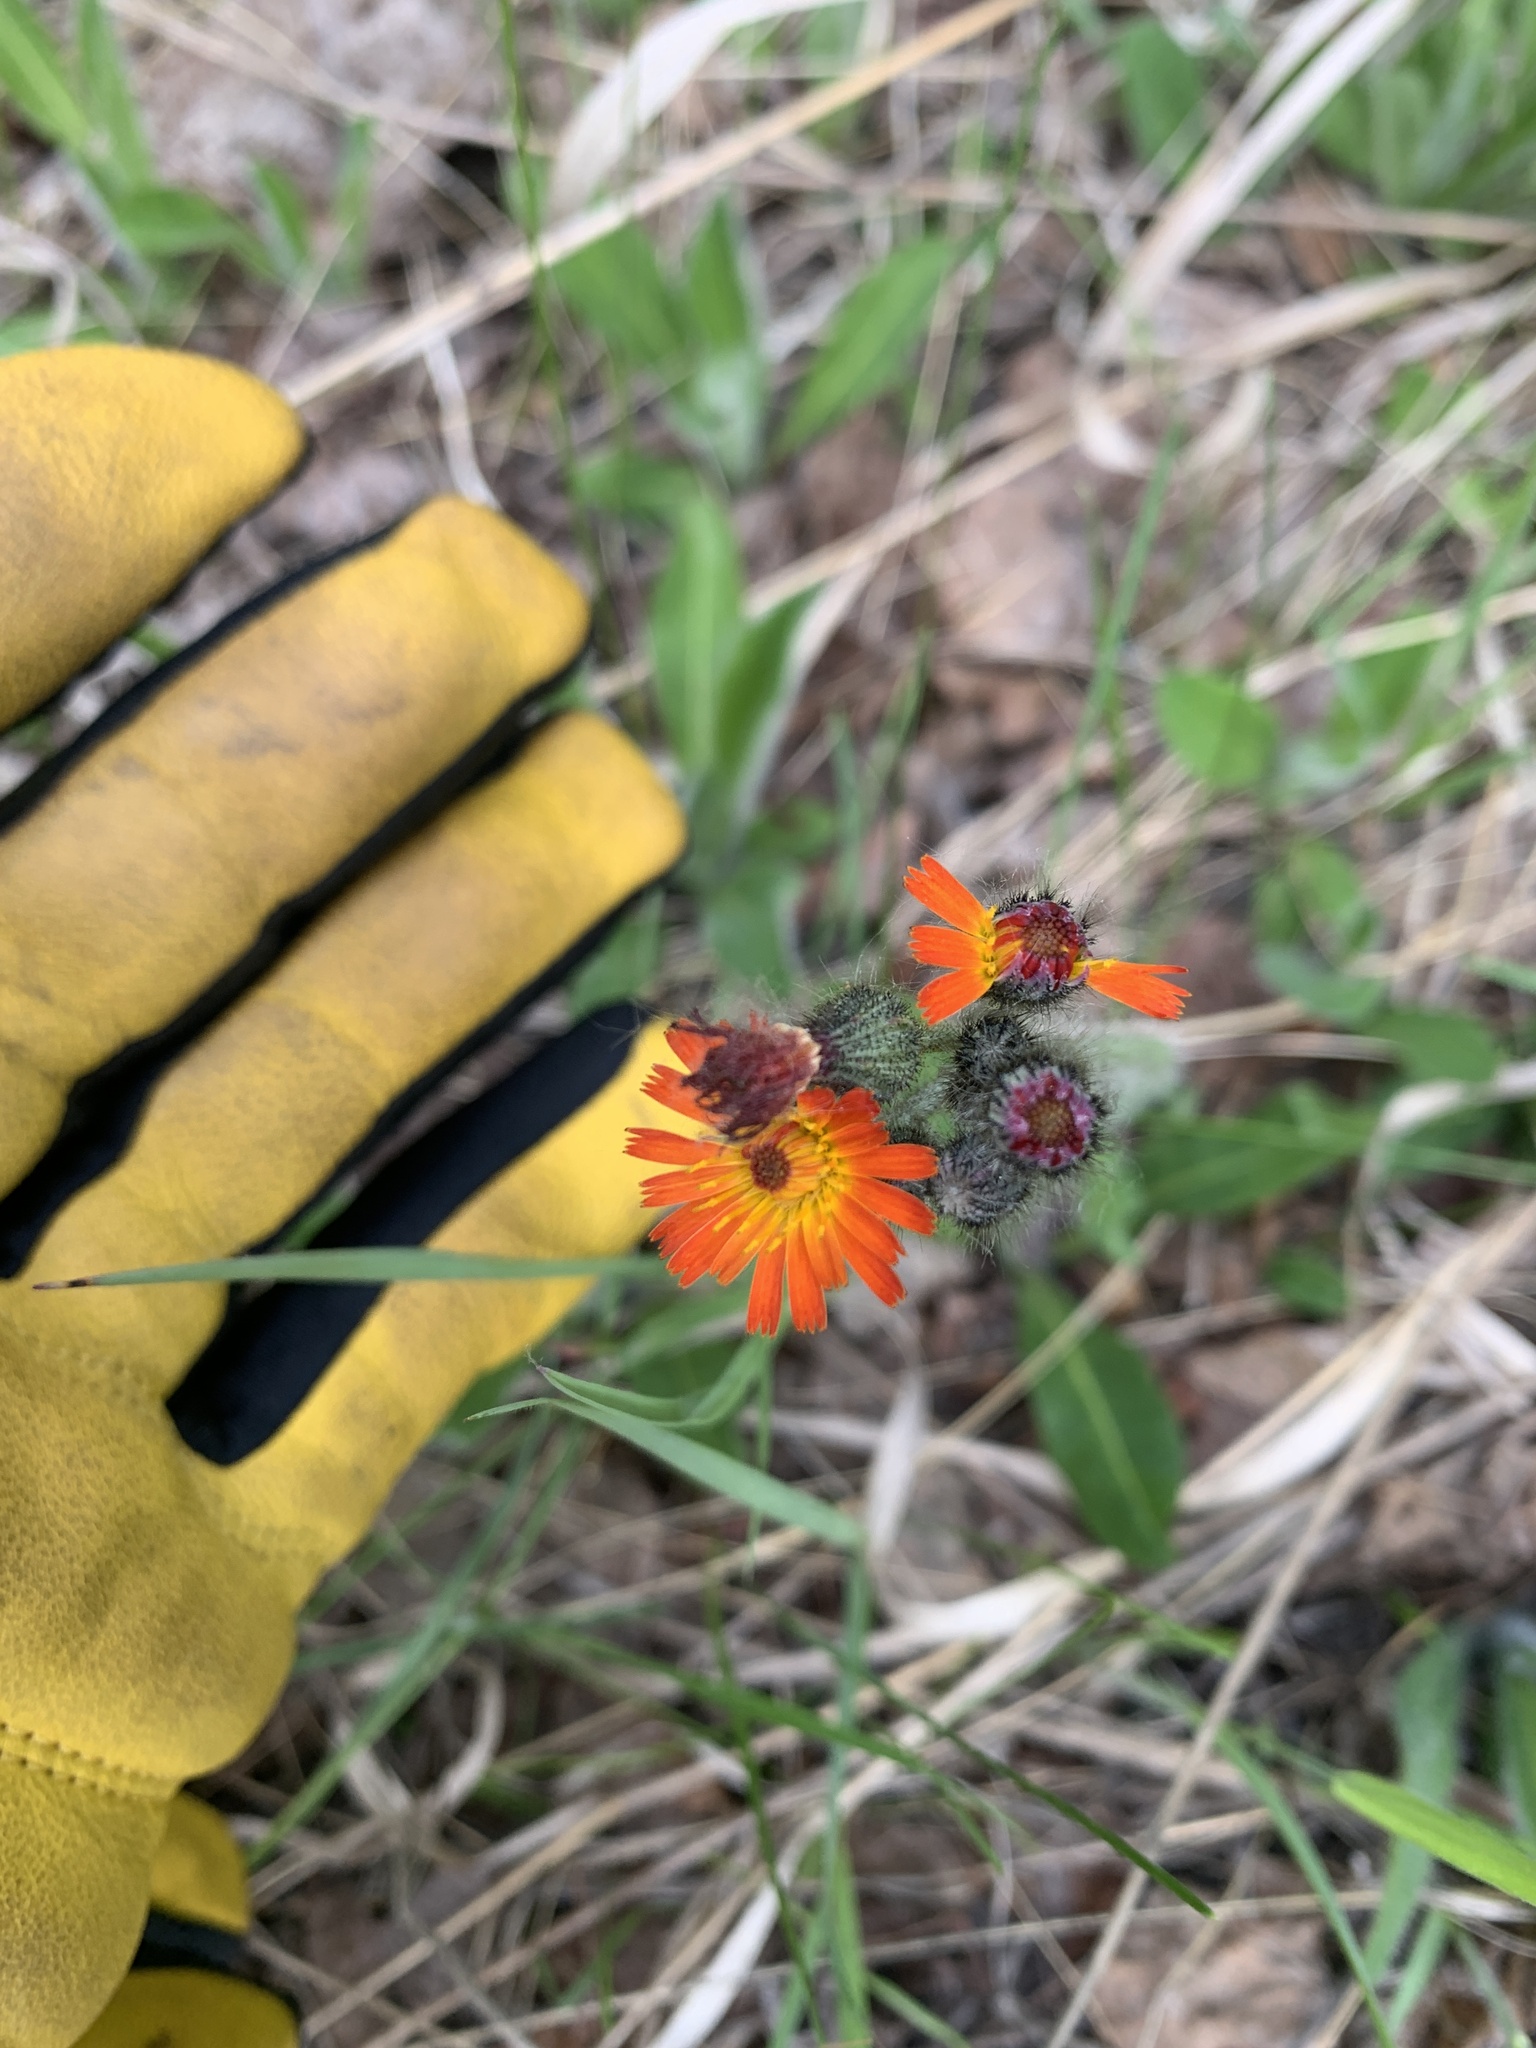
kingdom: Plantae
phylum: Tracheophyta
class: Magnoliopsida
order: Asterales
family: Asteraceae
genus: Pilosella
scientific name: Pilosella aurantiaca
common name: Fox-and-cubs
